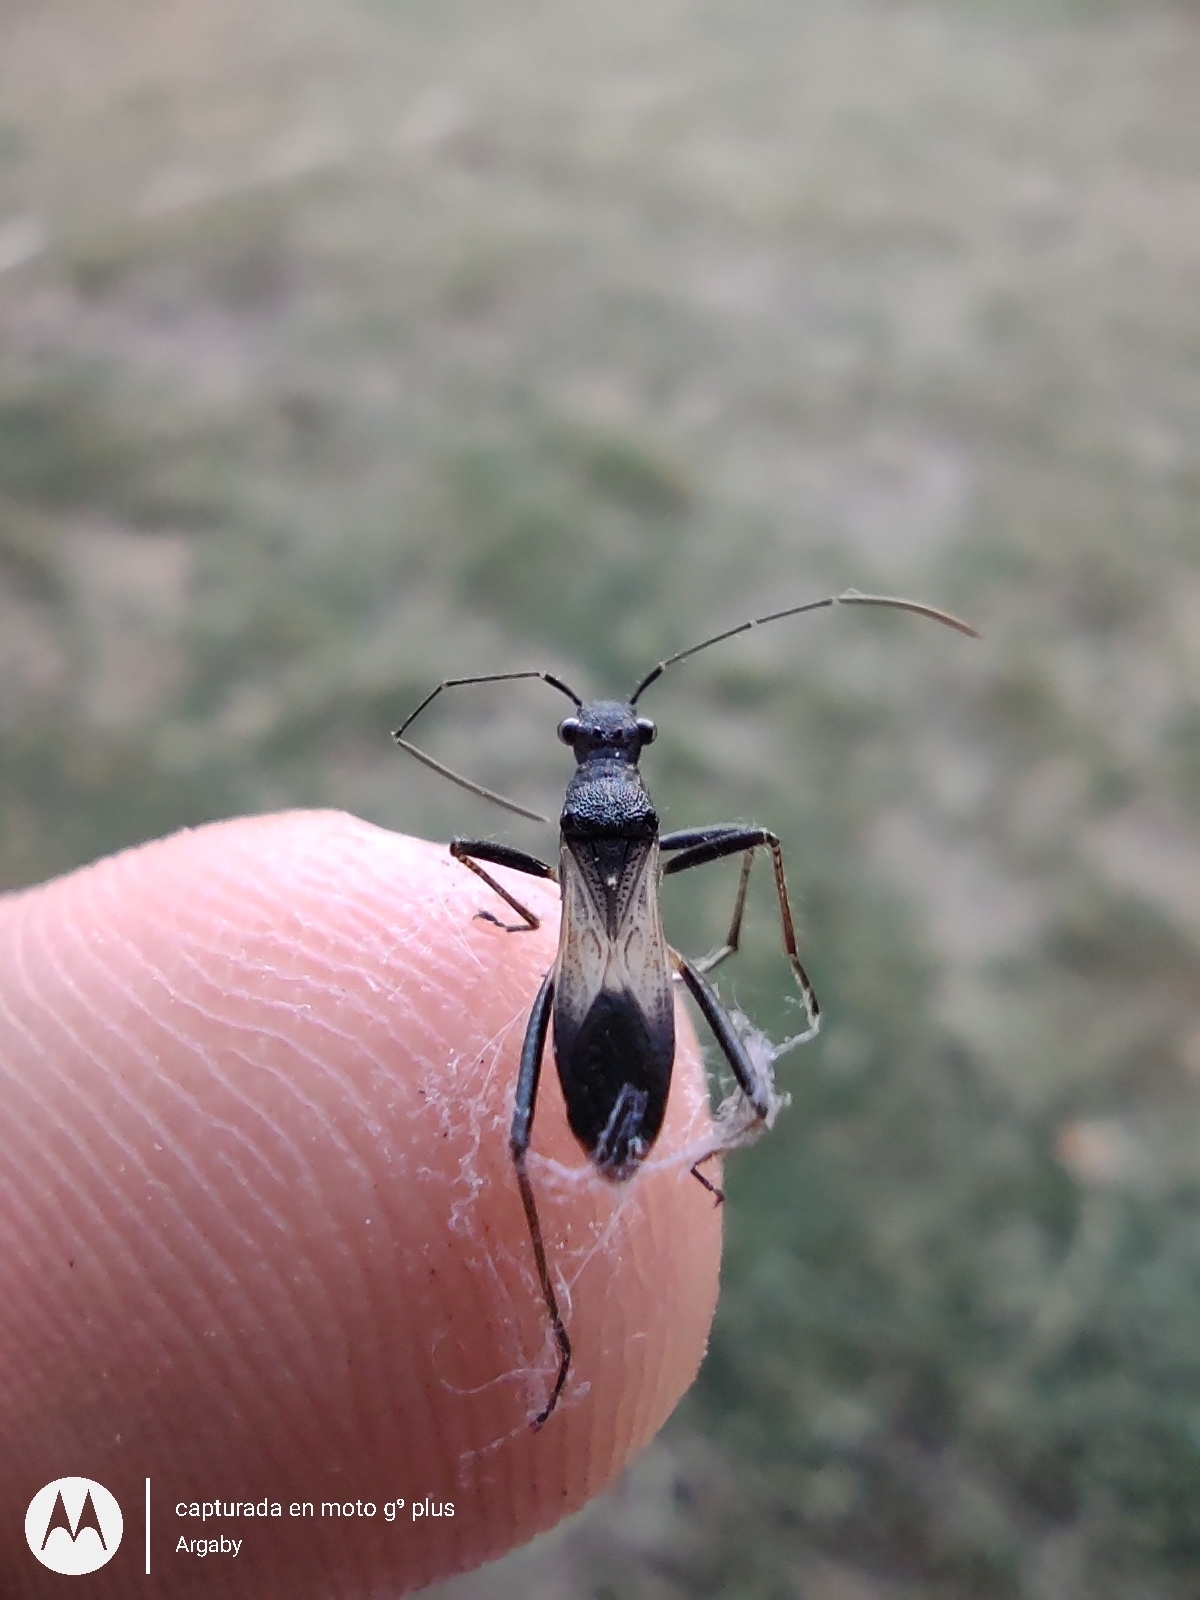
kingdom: Animalia
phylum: Arthropoda
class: Insecta
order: Hemiptera
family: Alydidae
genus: Cydamus
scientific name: Cydamus femoralis
